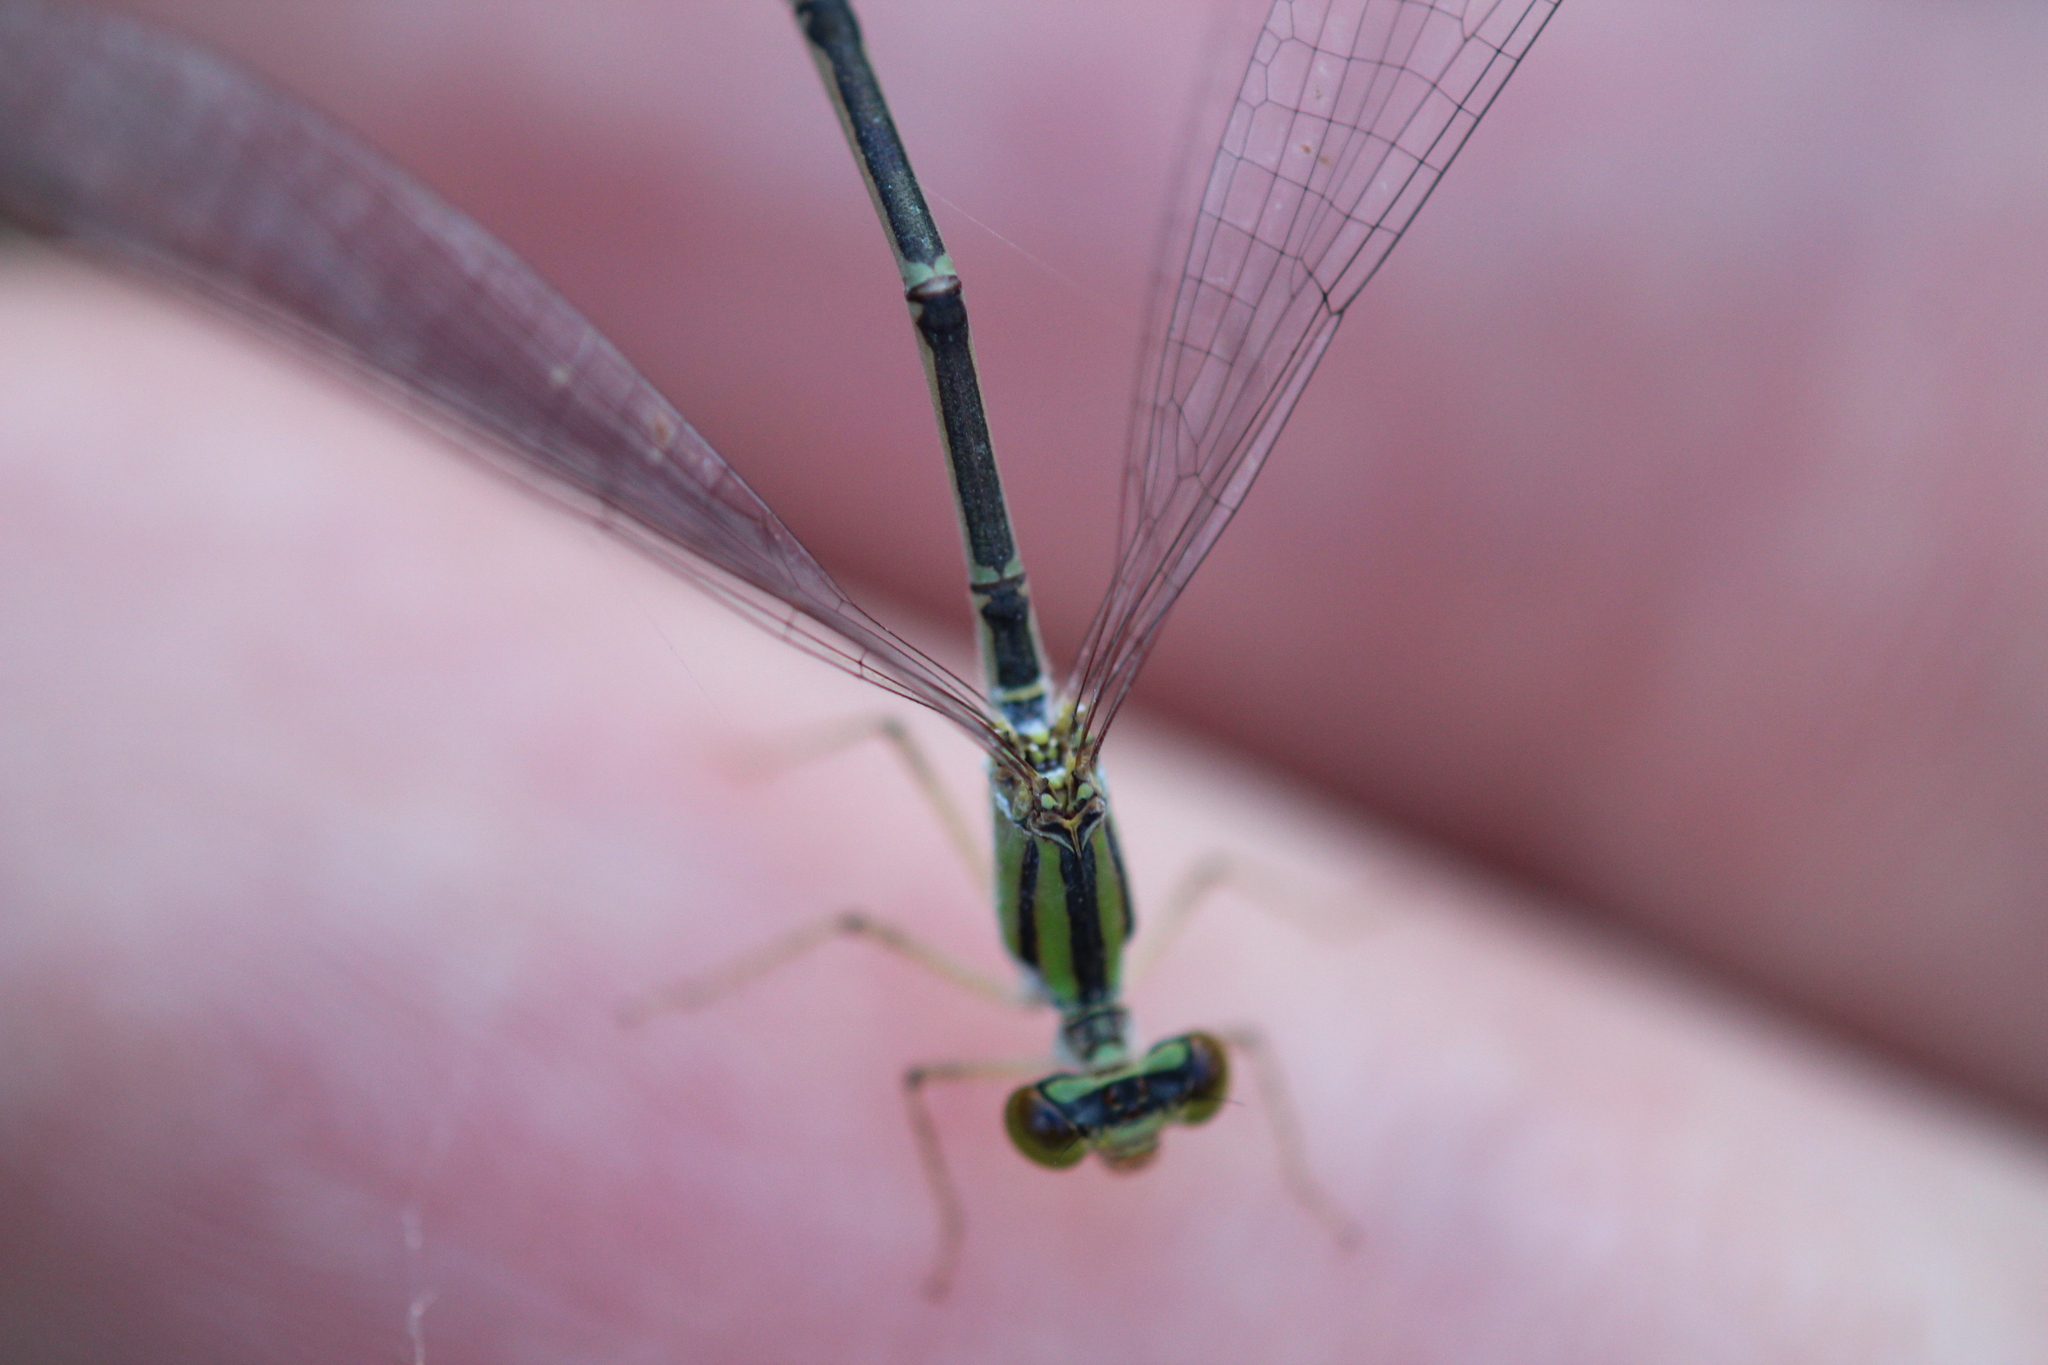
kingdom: Animalia
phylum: Arthropoda
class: Insecta
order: Odonata
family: Coenagrionidae
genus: Enallagma
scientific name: Enallagma vesperum
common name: Vesper bluet
